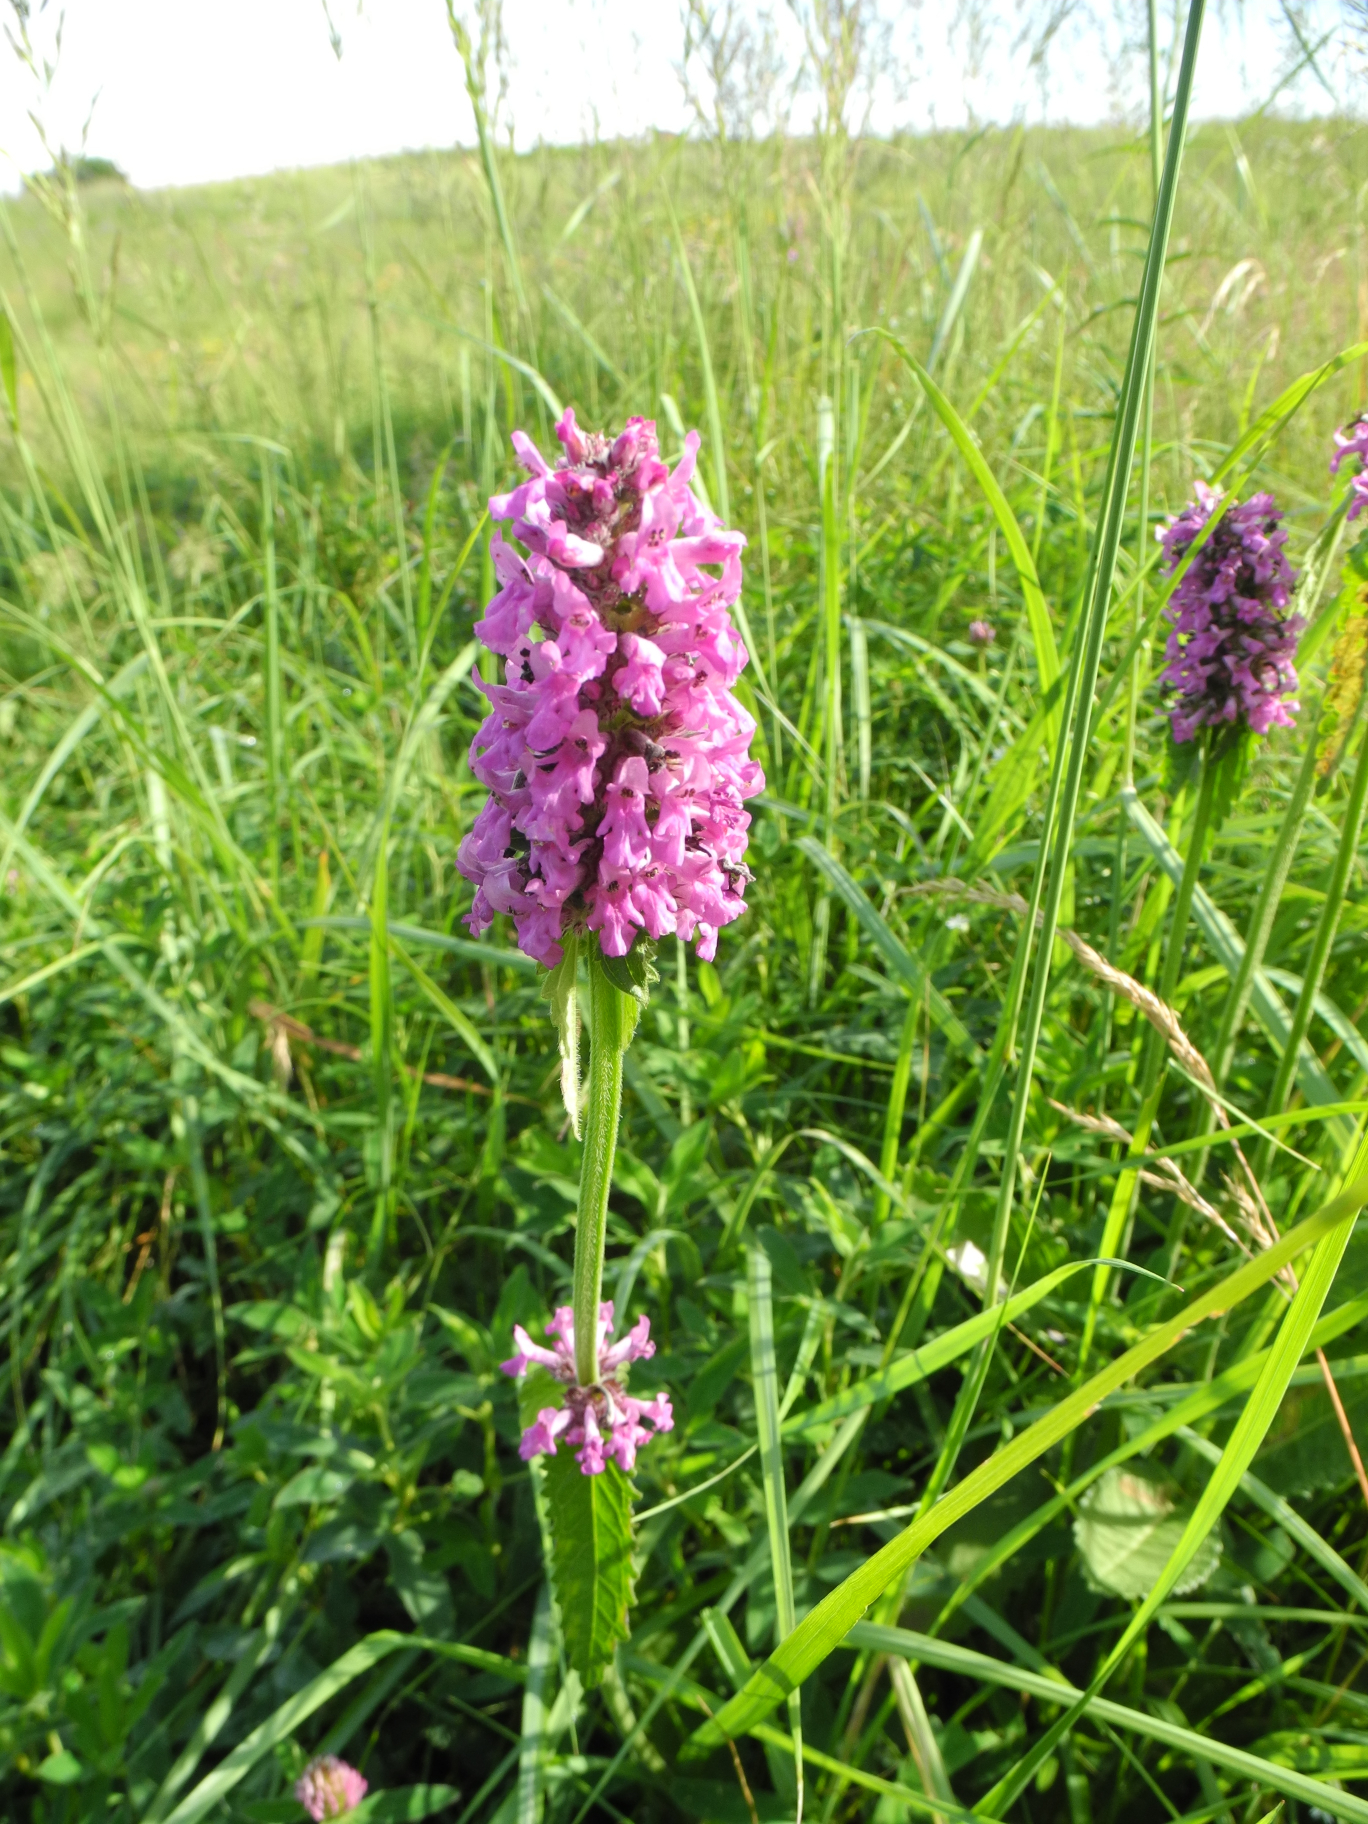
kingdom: Plantae
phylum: Tracheophyta
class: Magnoliopsida
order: Lamiales
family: Lamiaceae
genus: Betonica
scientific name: Betonica officinalis
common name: Bishop's-wort
